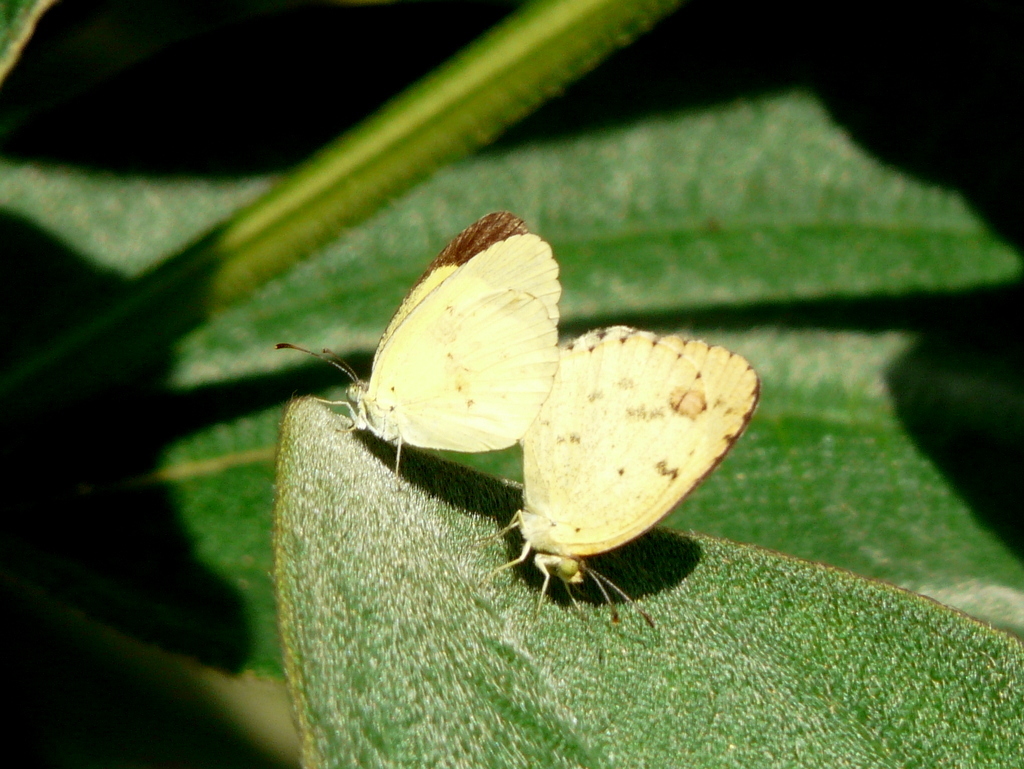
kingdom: Animalia
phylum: Arthropoda
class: Insecta
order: Lepidoptera
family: Pieridae
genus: Pyrisitia
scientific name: Pyrisitia lisa
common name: Little yellow
